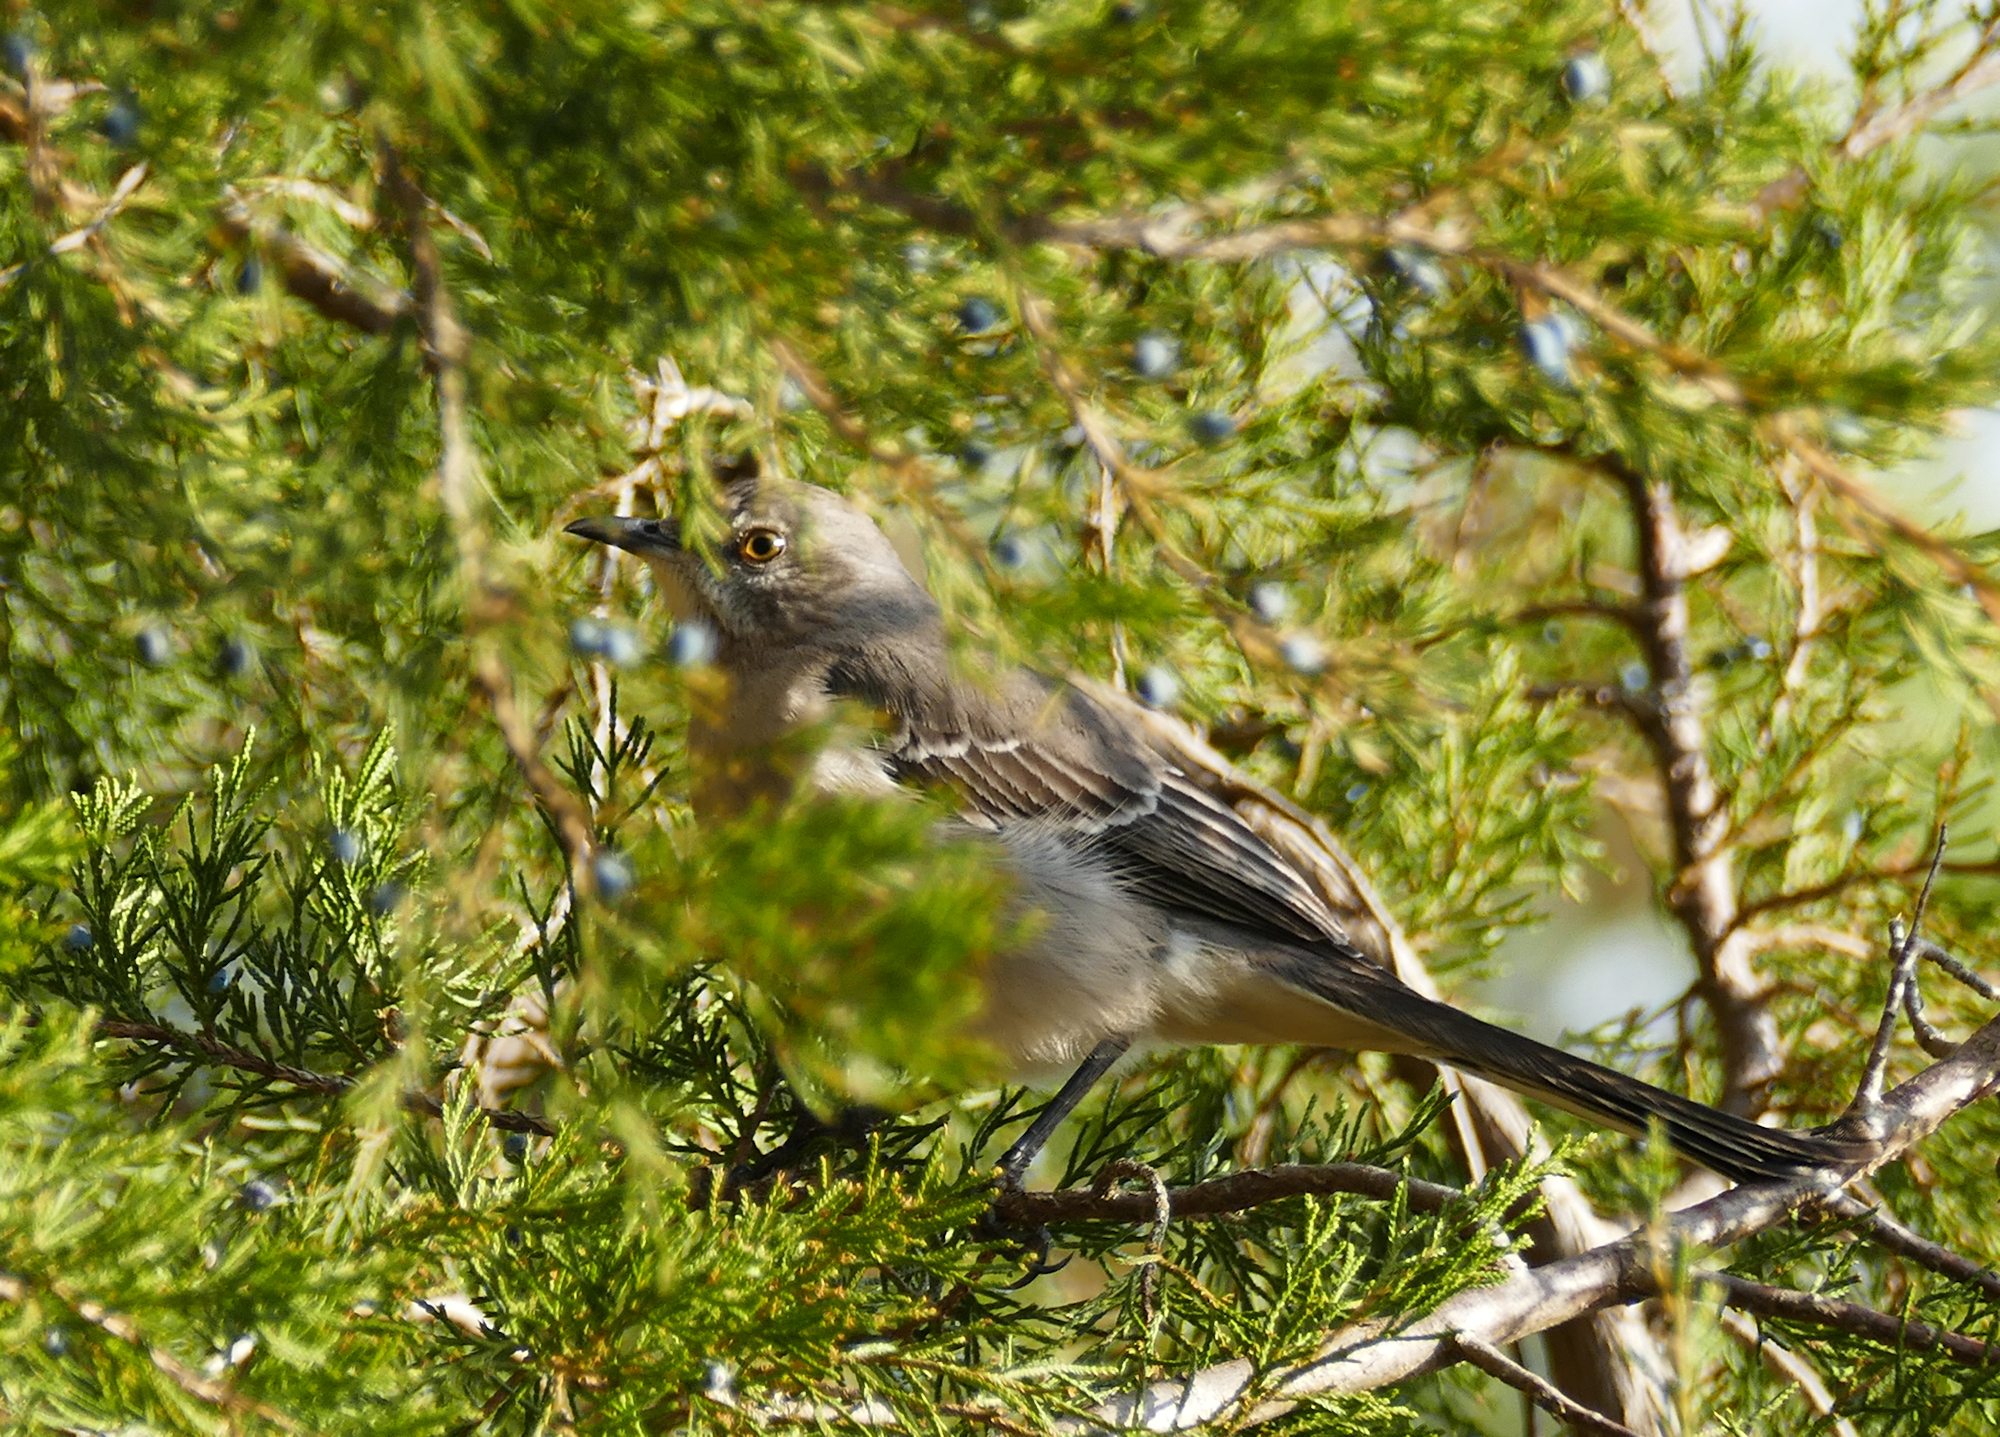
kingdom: Animalia
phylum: Chordata
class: Aves
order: Passeriformes
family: Mimidae
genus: Mimus
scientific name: Mimus polyglottos
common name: Northern mockingbird
